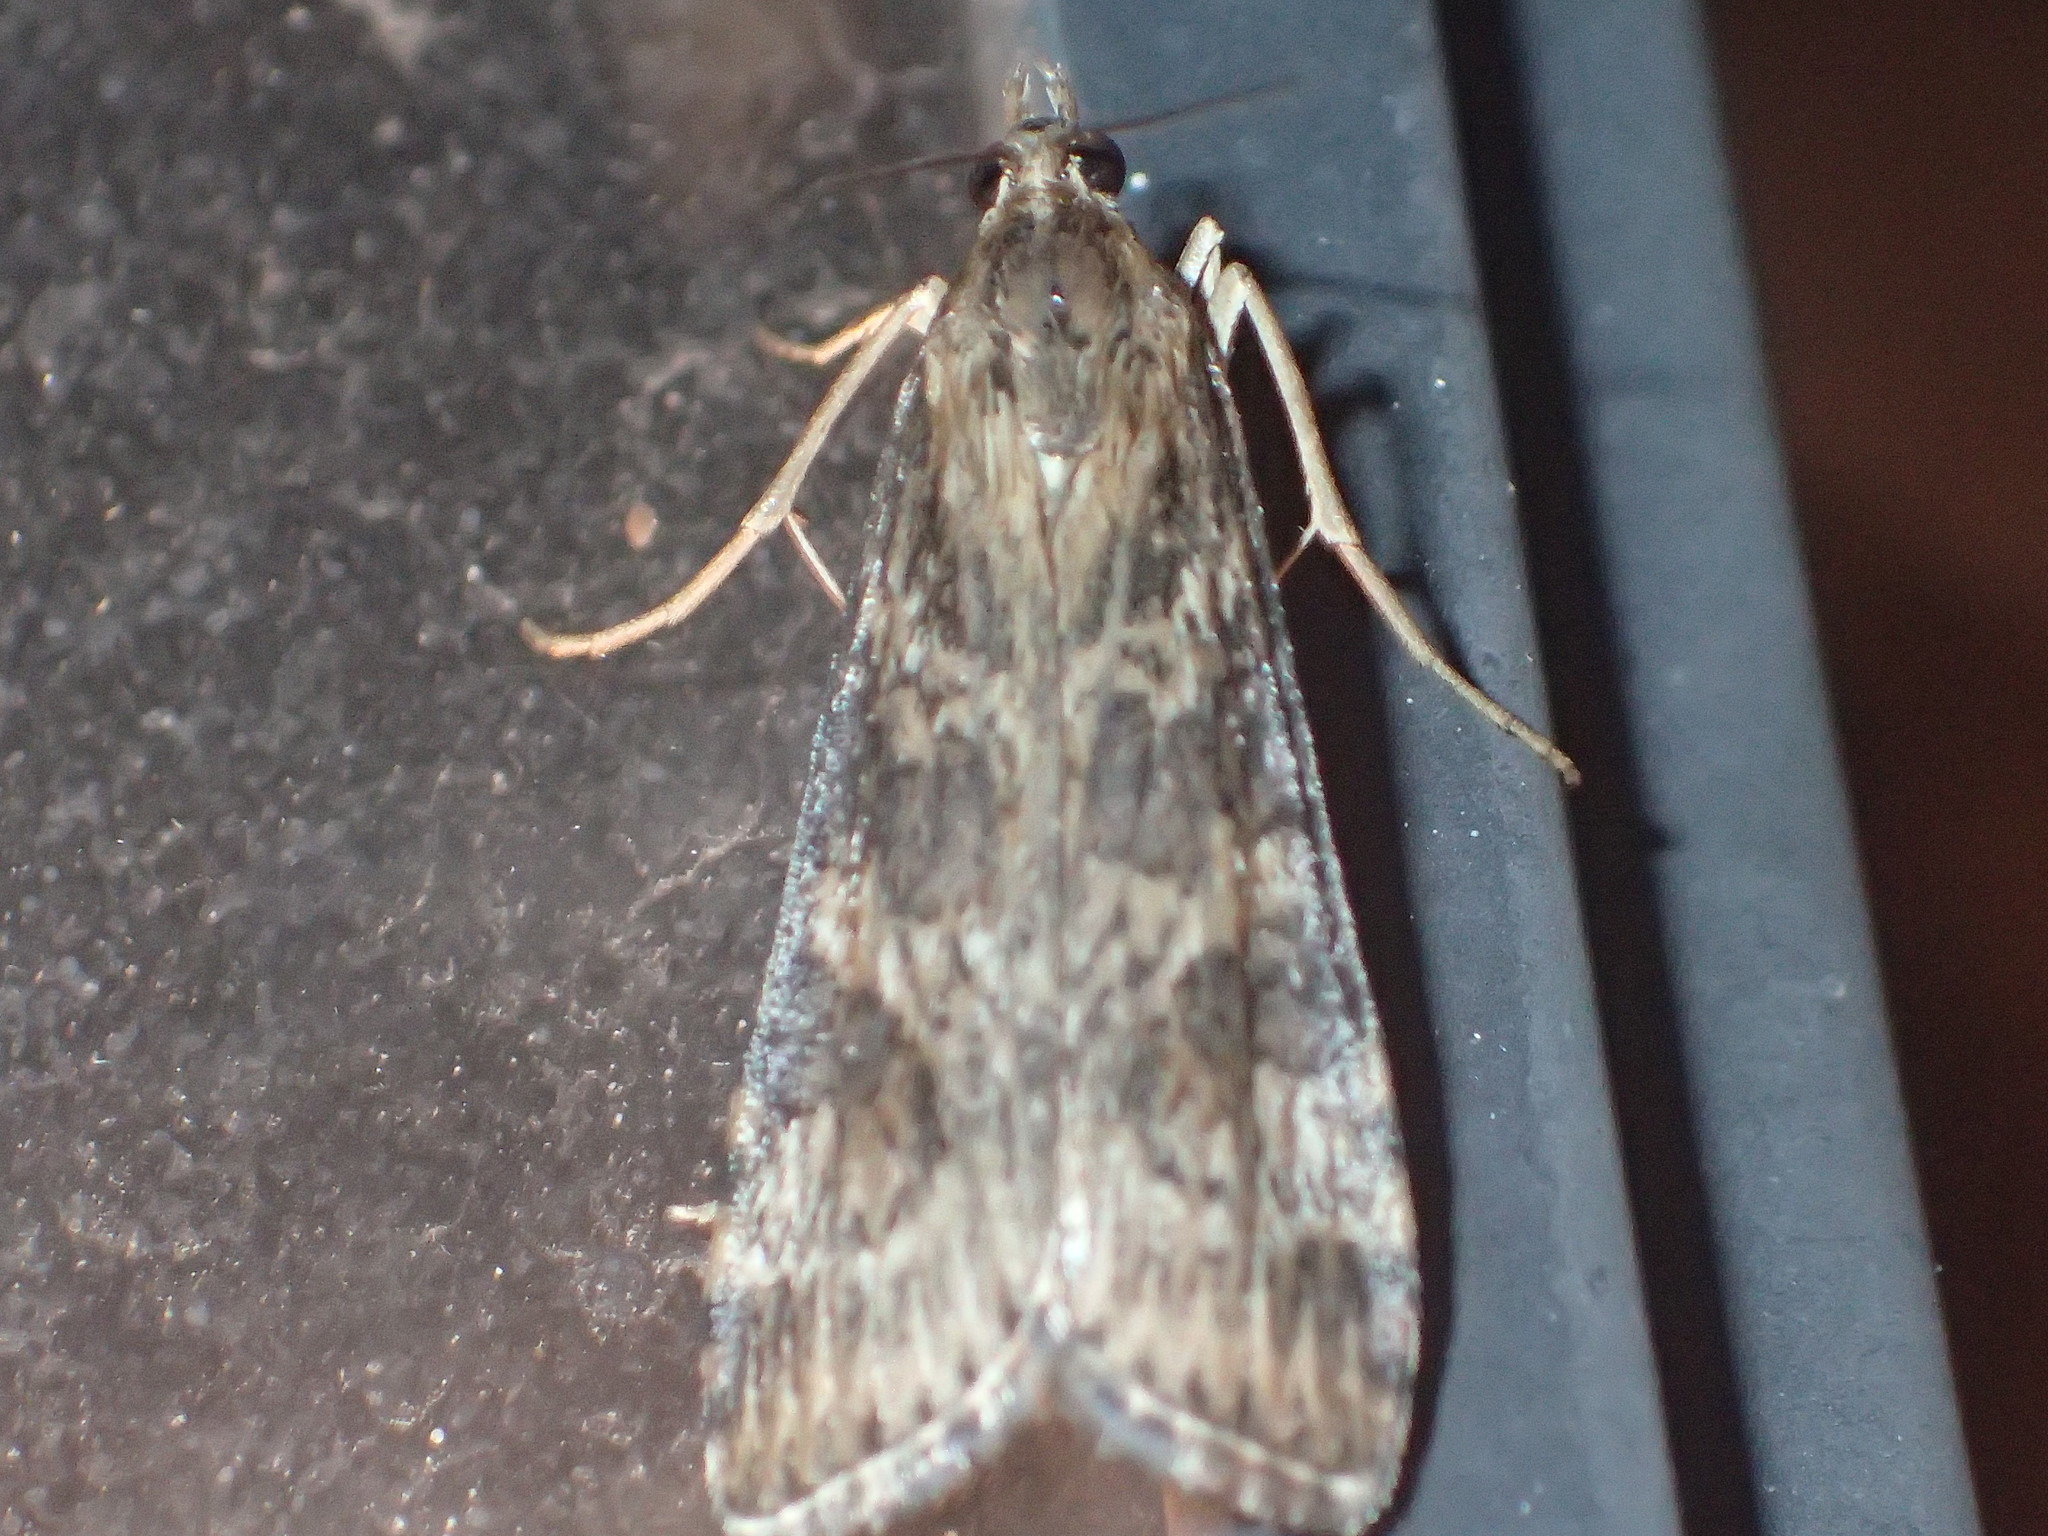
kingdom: Animalia
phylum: Arthropoda
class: Insecta
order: Lepidoptera
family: Crambidae
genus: Nomophila
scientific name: Nomophila nearctica
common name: American rush veneer
